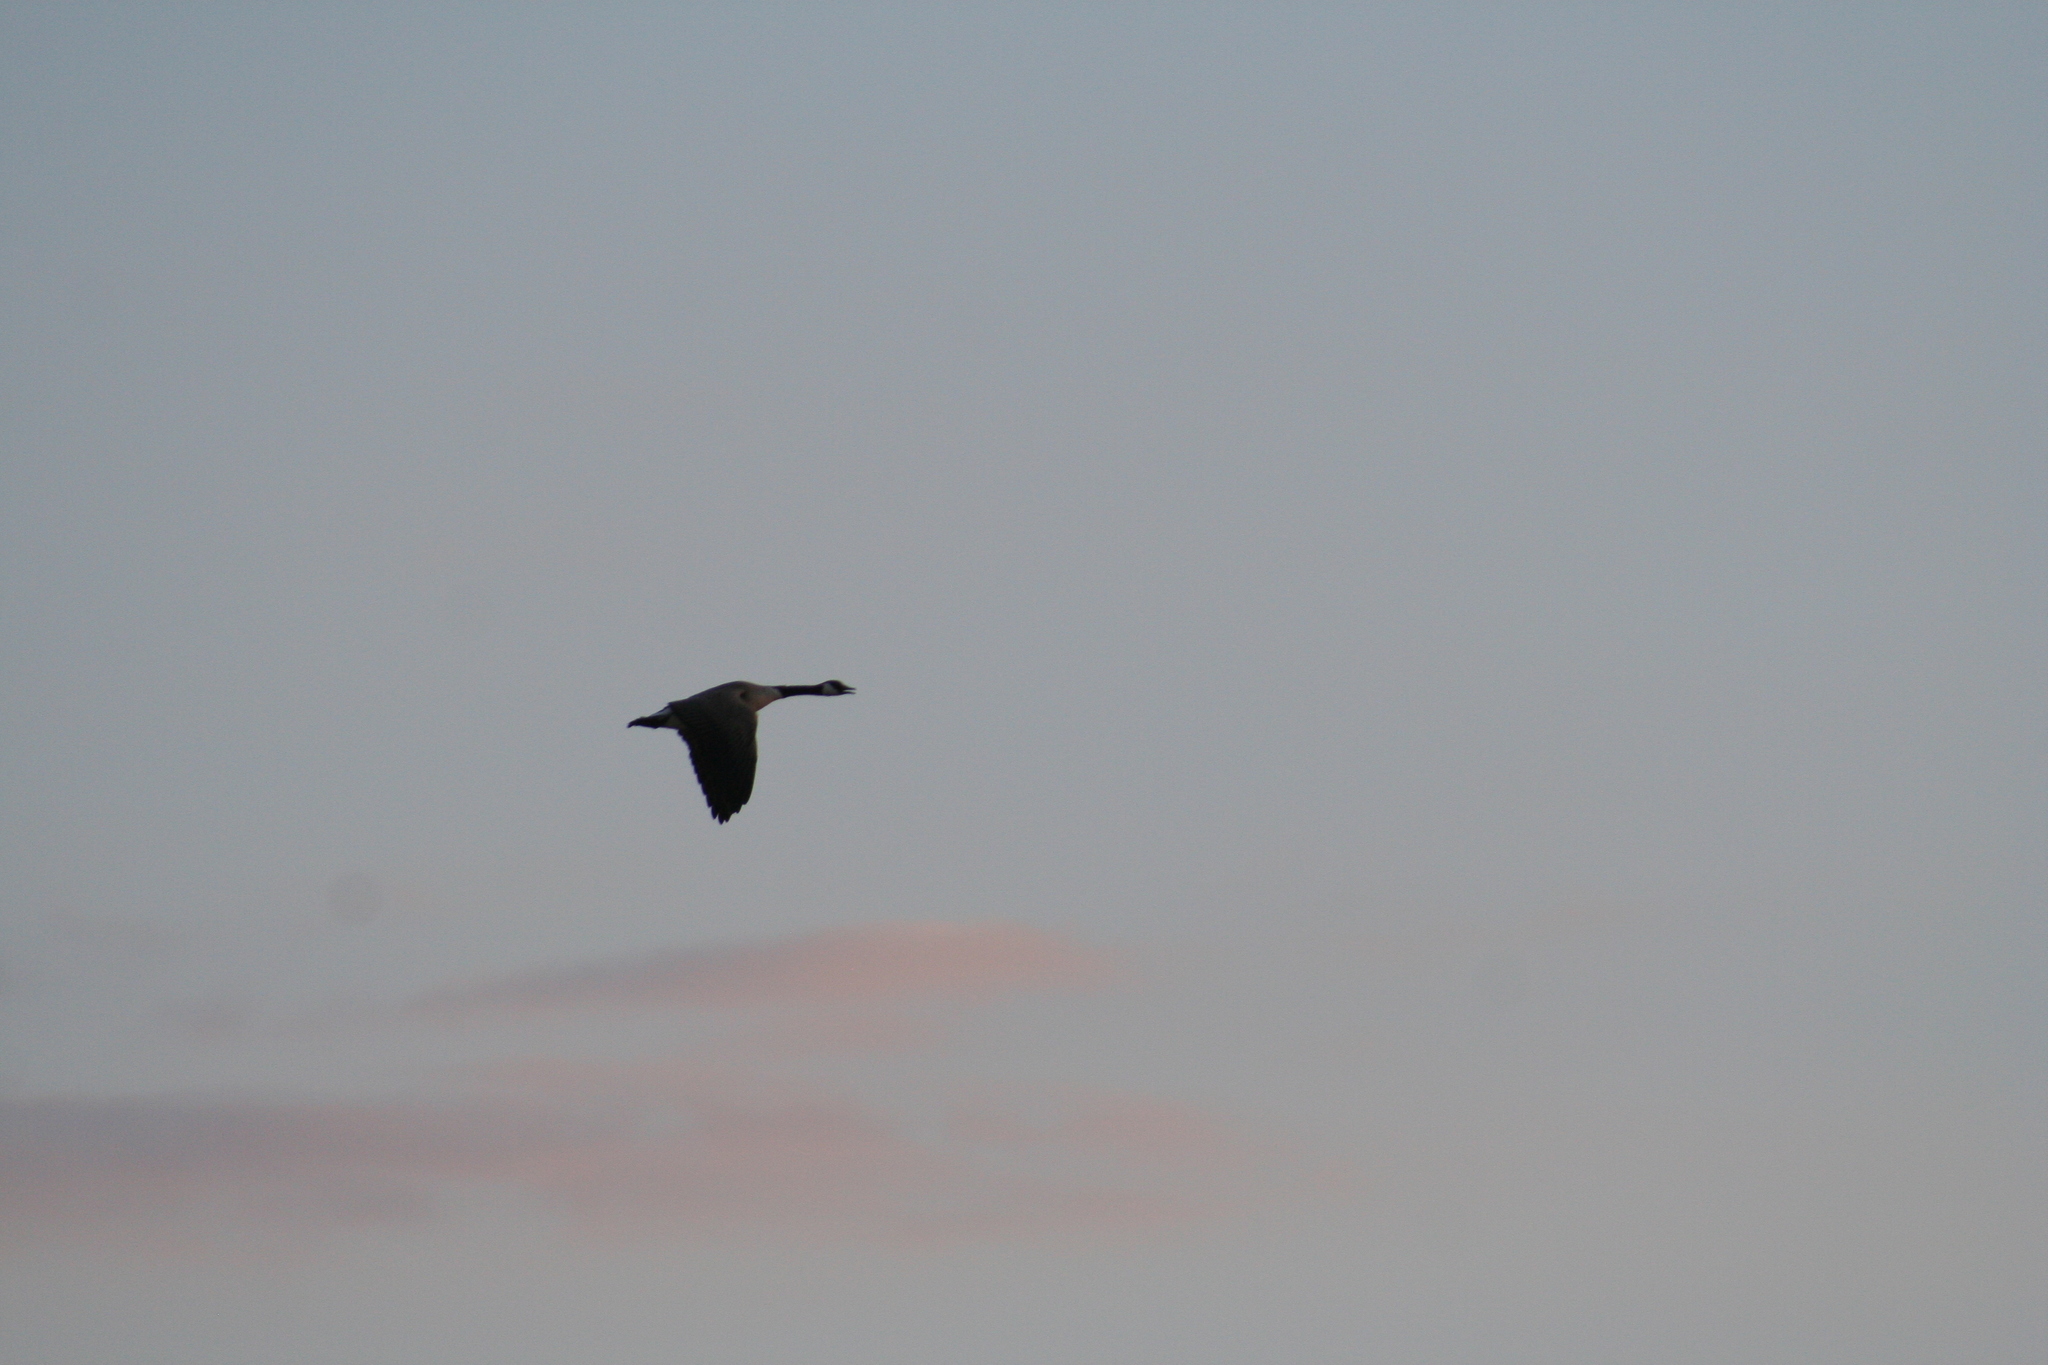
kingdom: Animalia
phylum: Chordata
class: Aves
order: Anseriformes
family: Anatidae
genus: Branta
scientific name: Branta canadensis
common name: Canada goose
